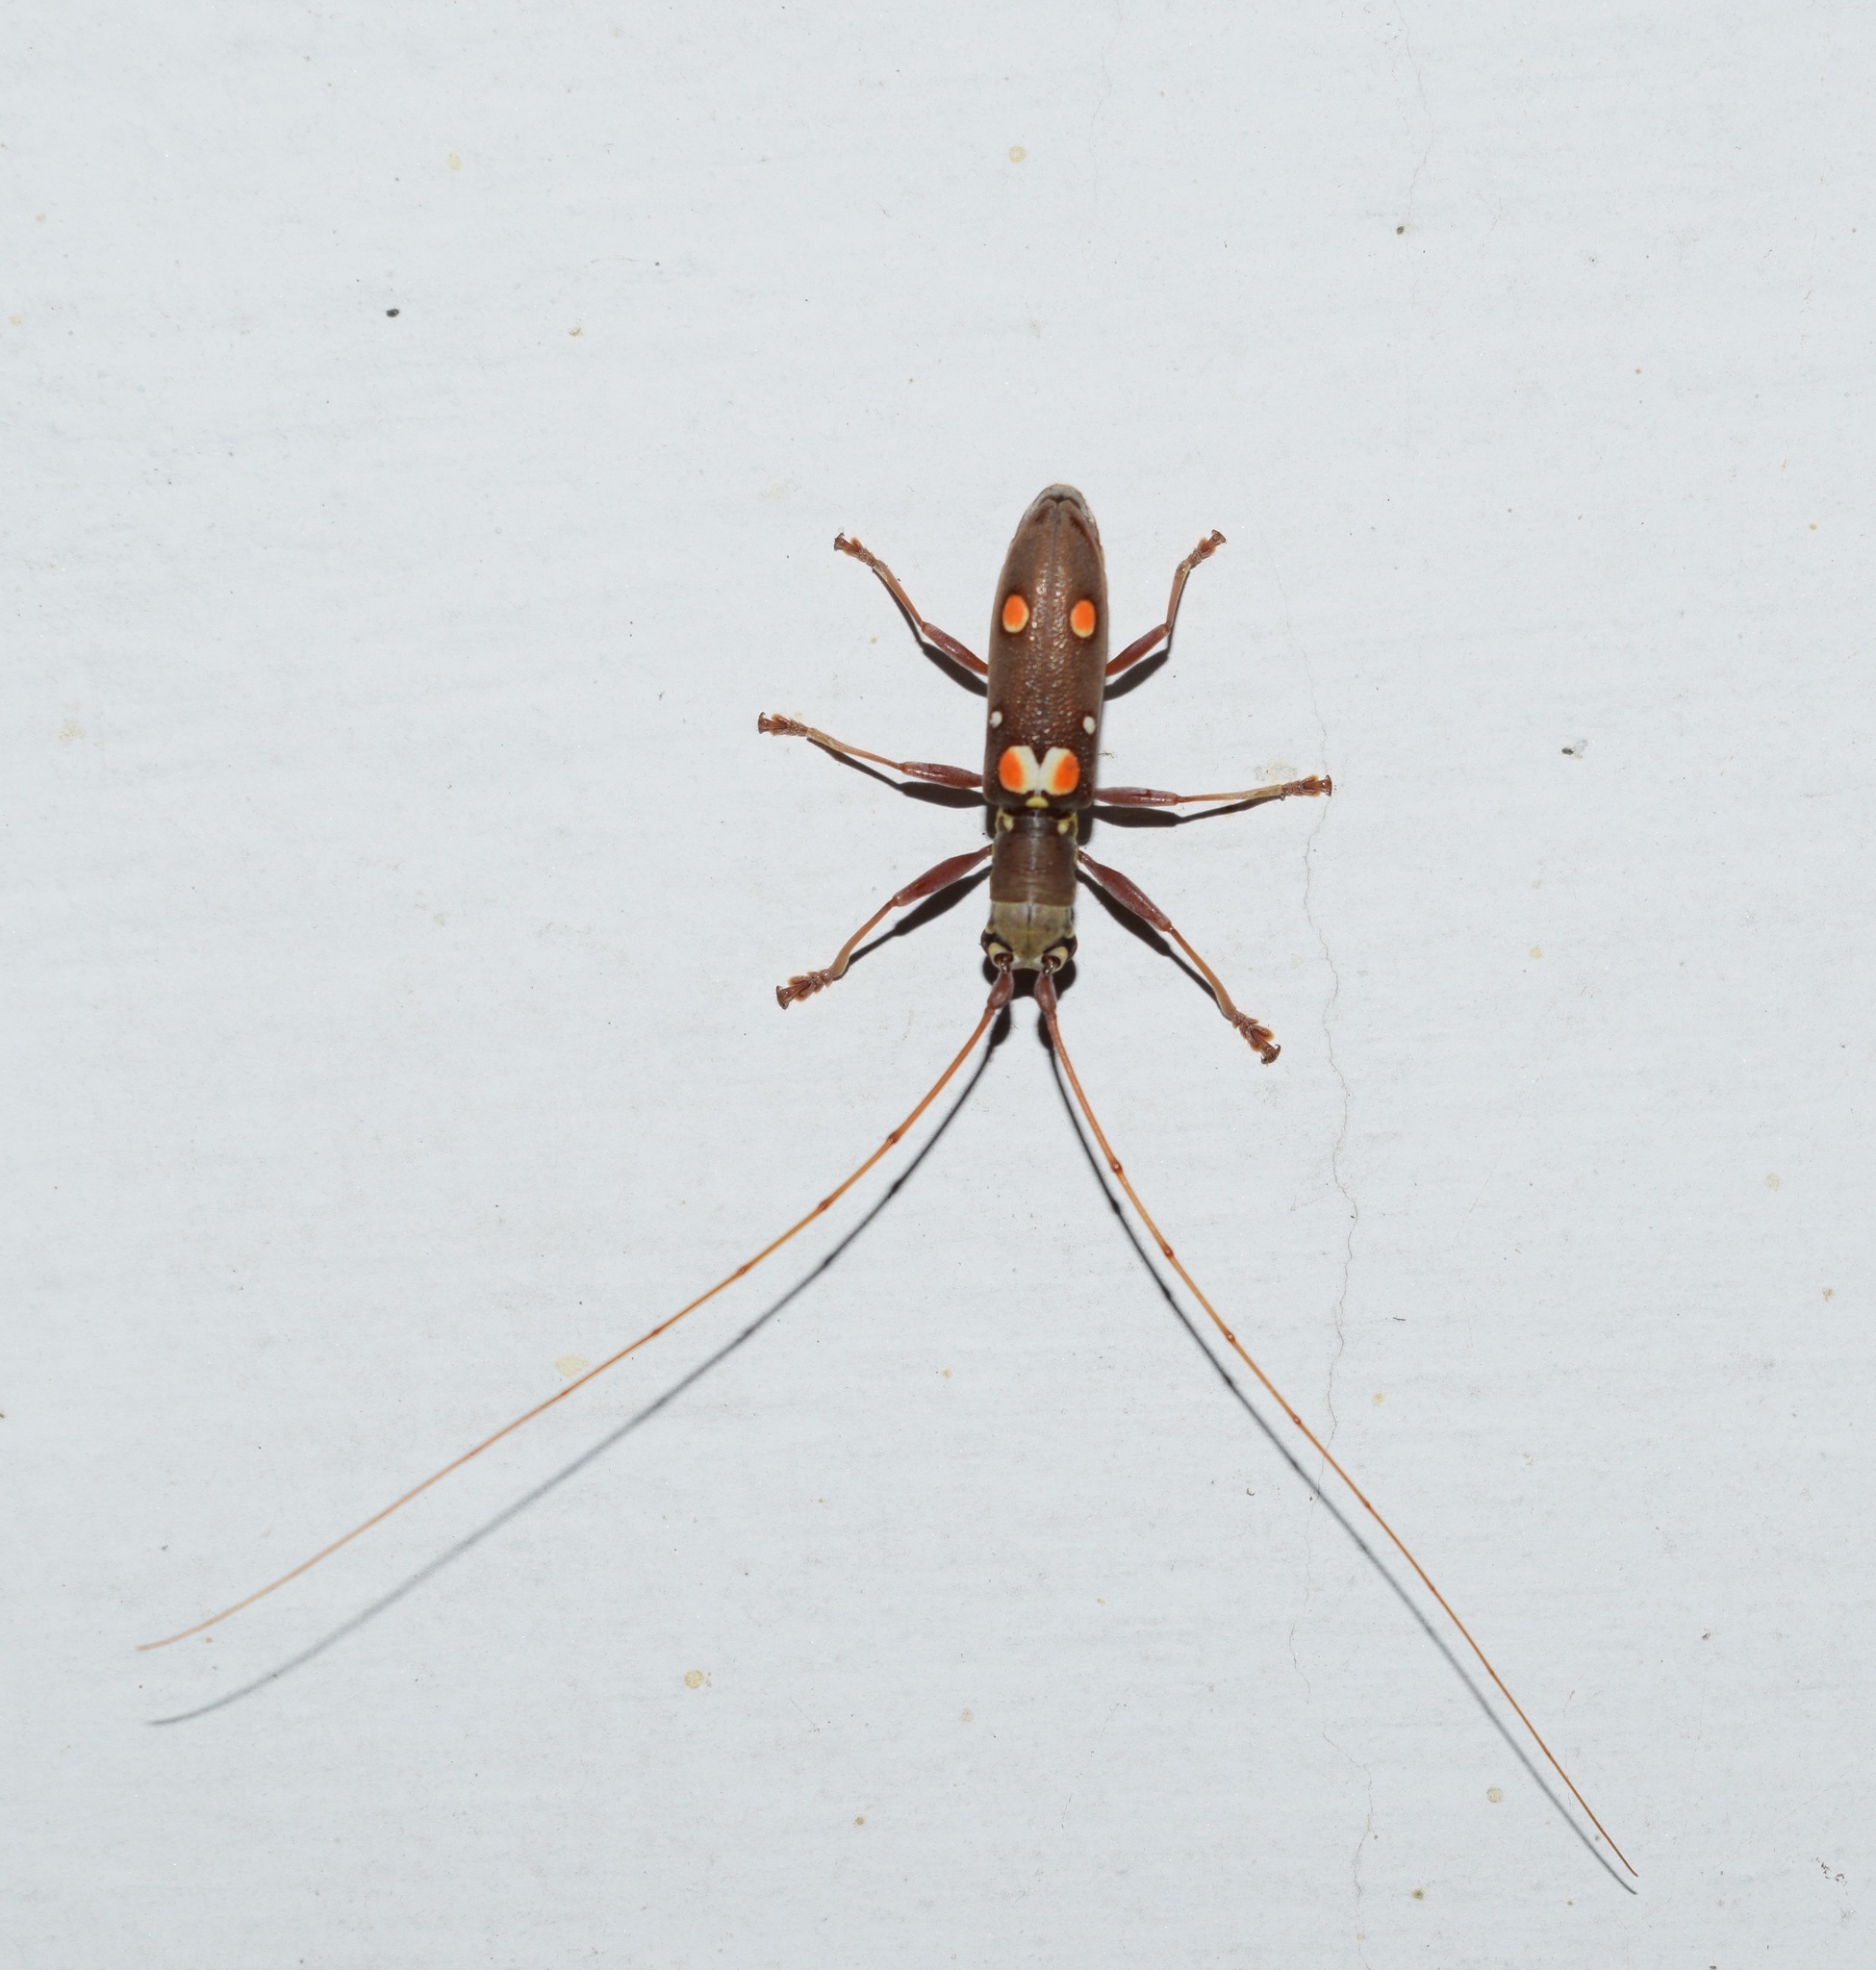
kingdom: Animalia
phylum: Arthropoda
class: Insecta
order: Coleoptera
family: Cerambycidae
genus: Olenecamptus
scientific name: Olenecamptus bilobus
